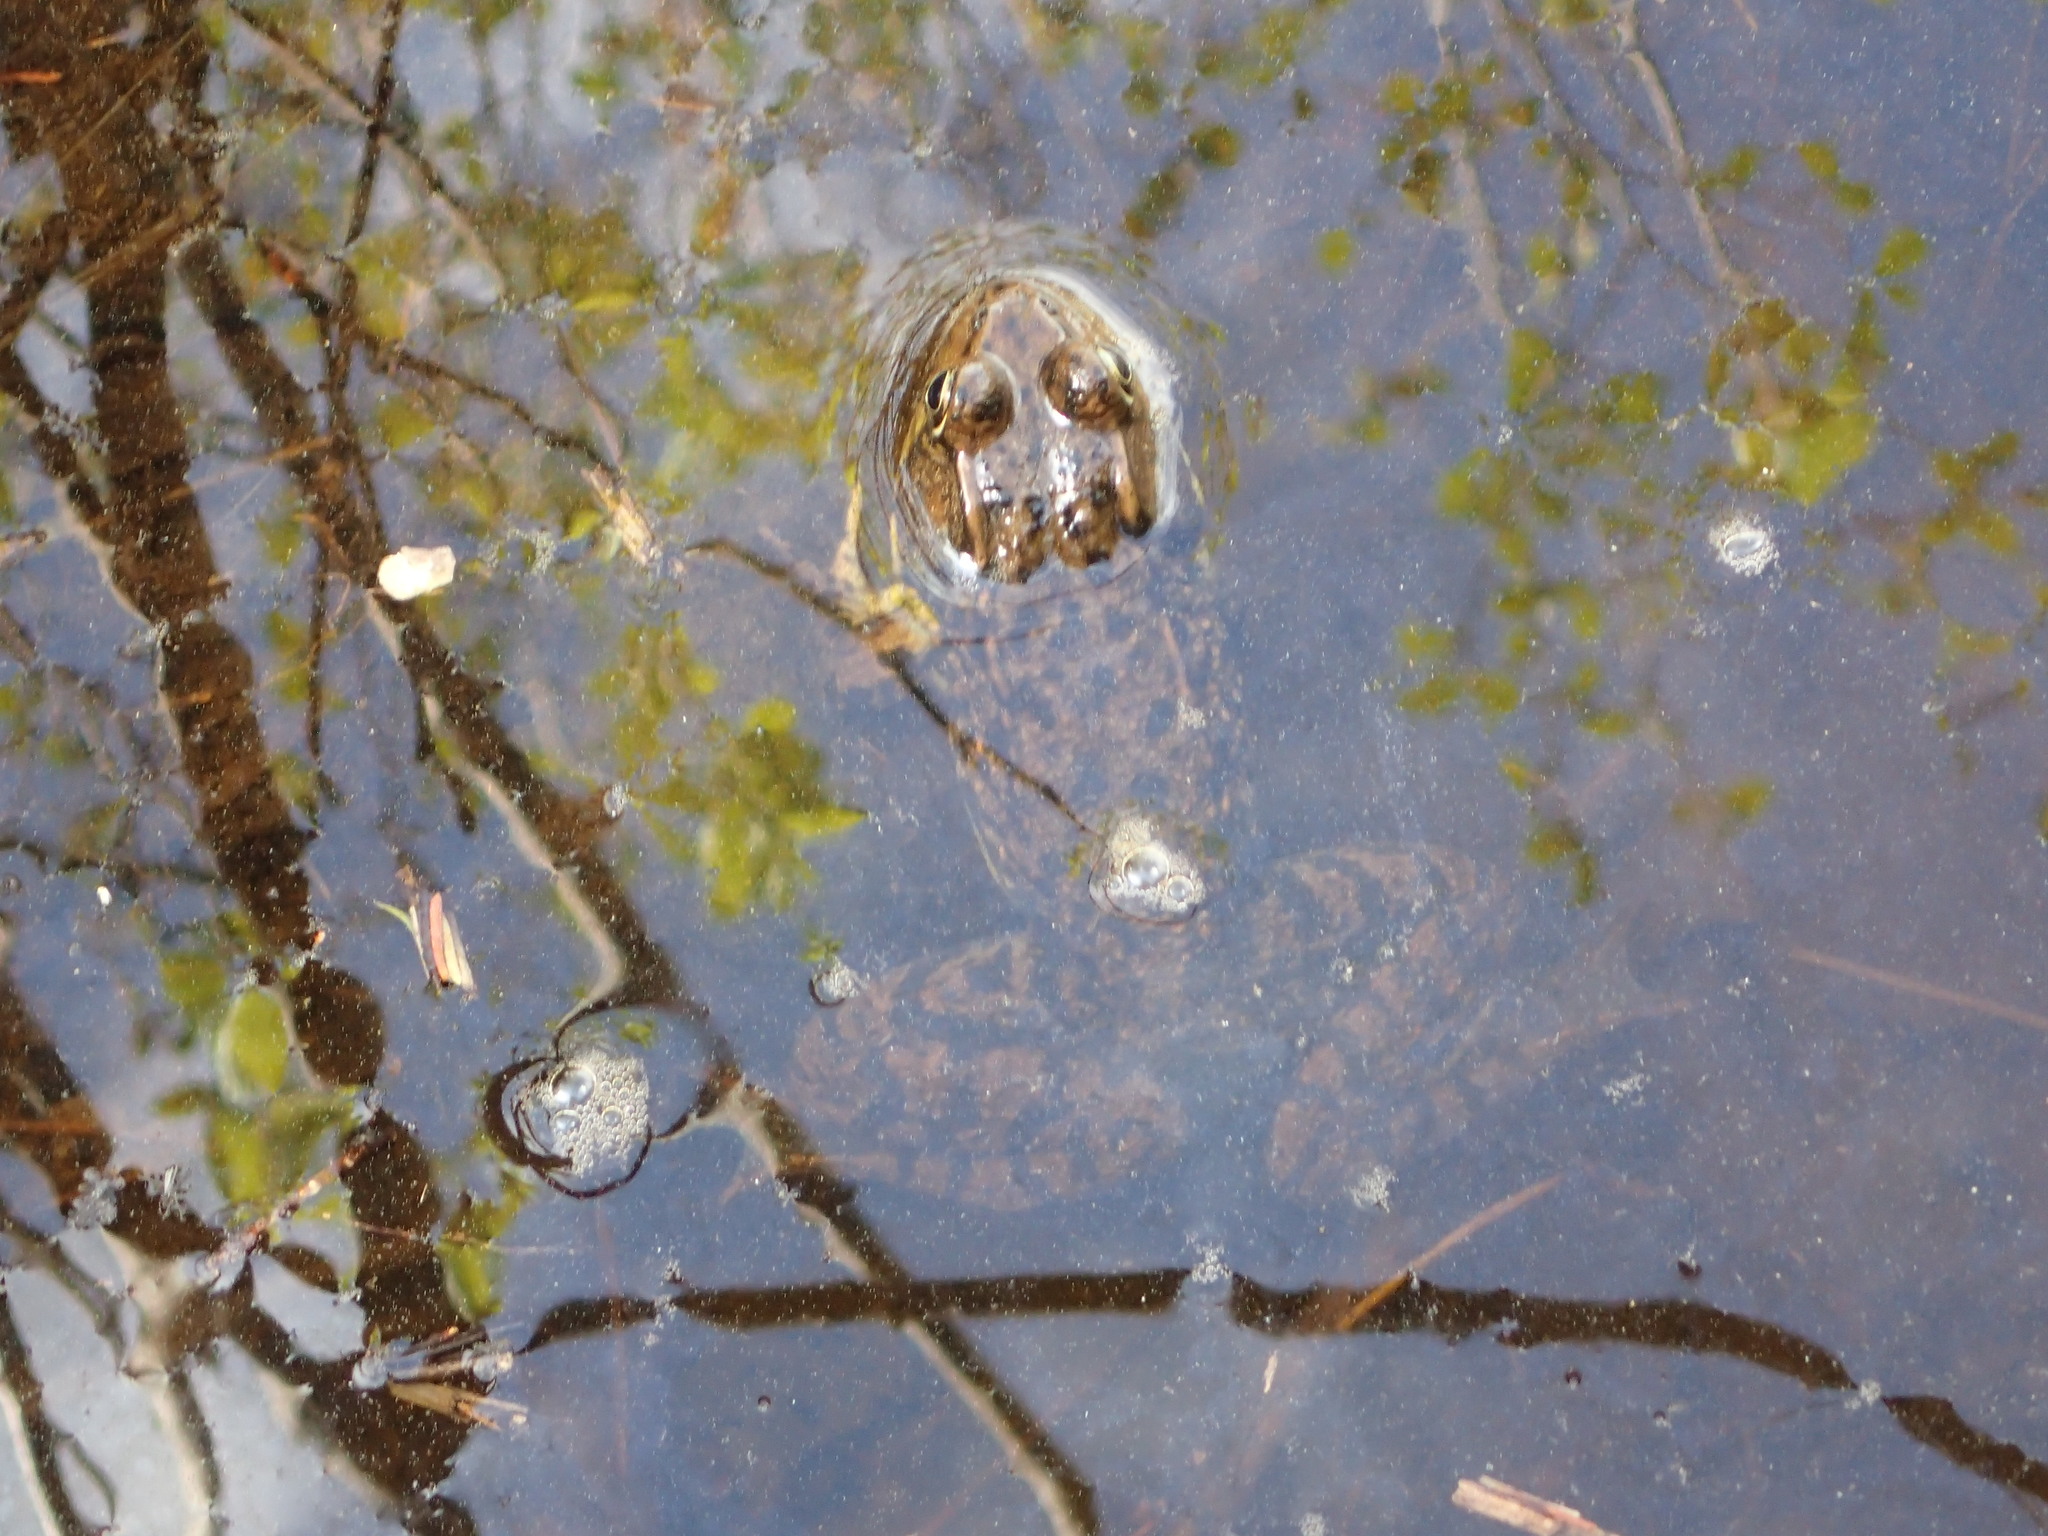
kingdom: Animalia
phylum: Chordata
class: Amphibia
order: Anura
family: Ranidae
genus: Lithobates
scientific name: Lithobates clamitans
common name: Green frog
